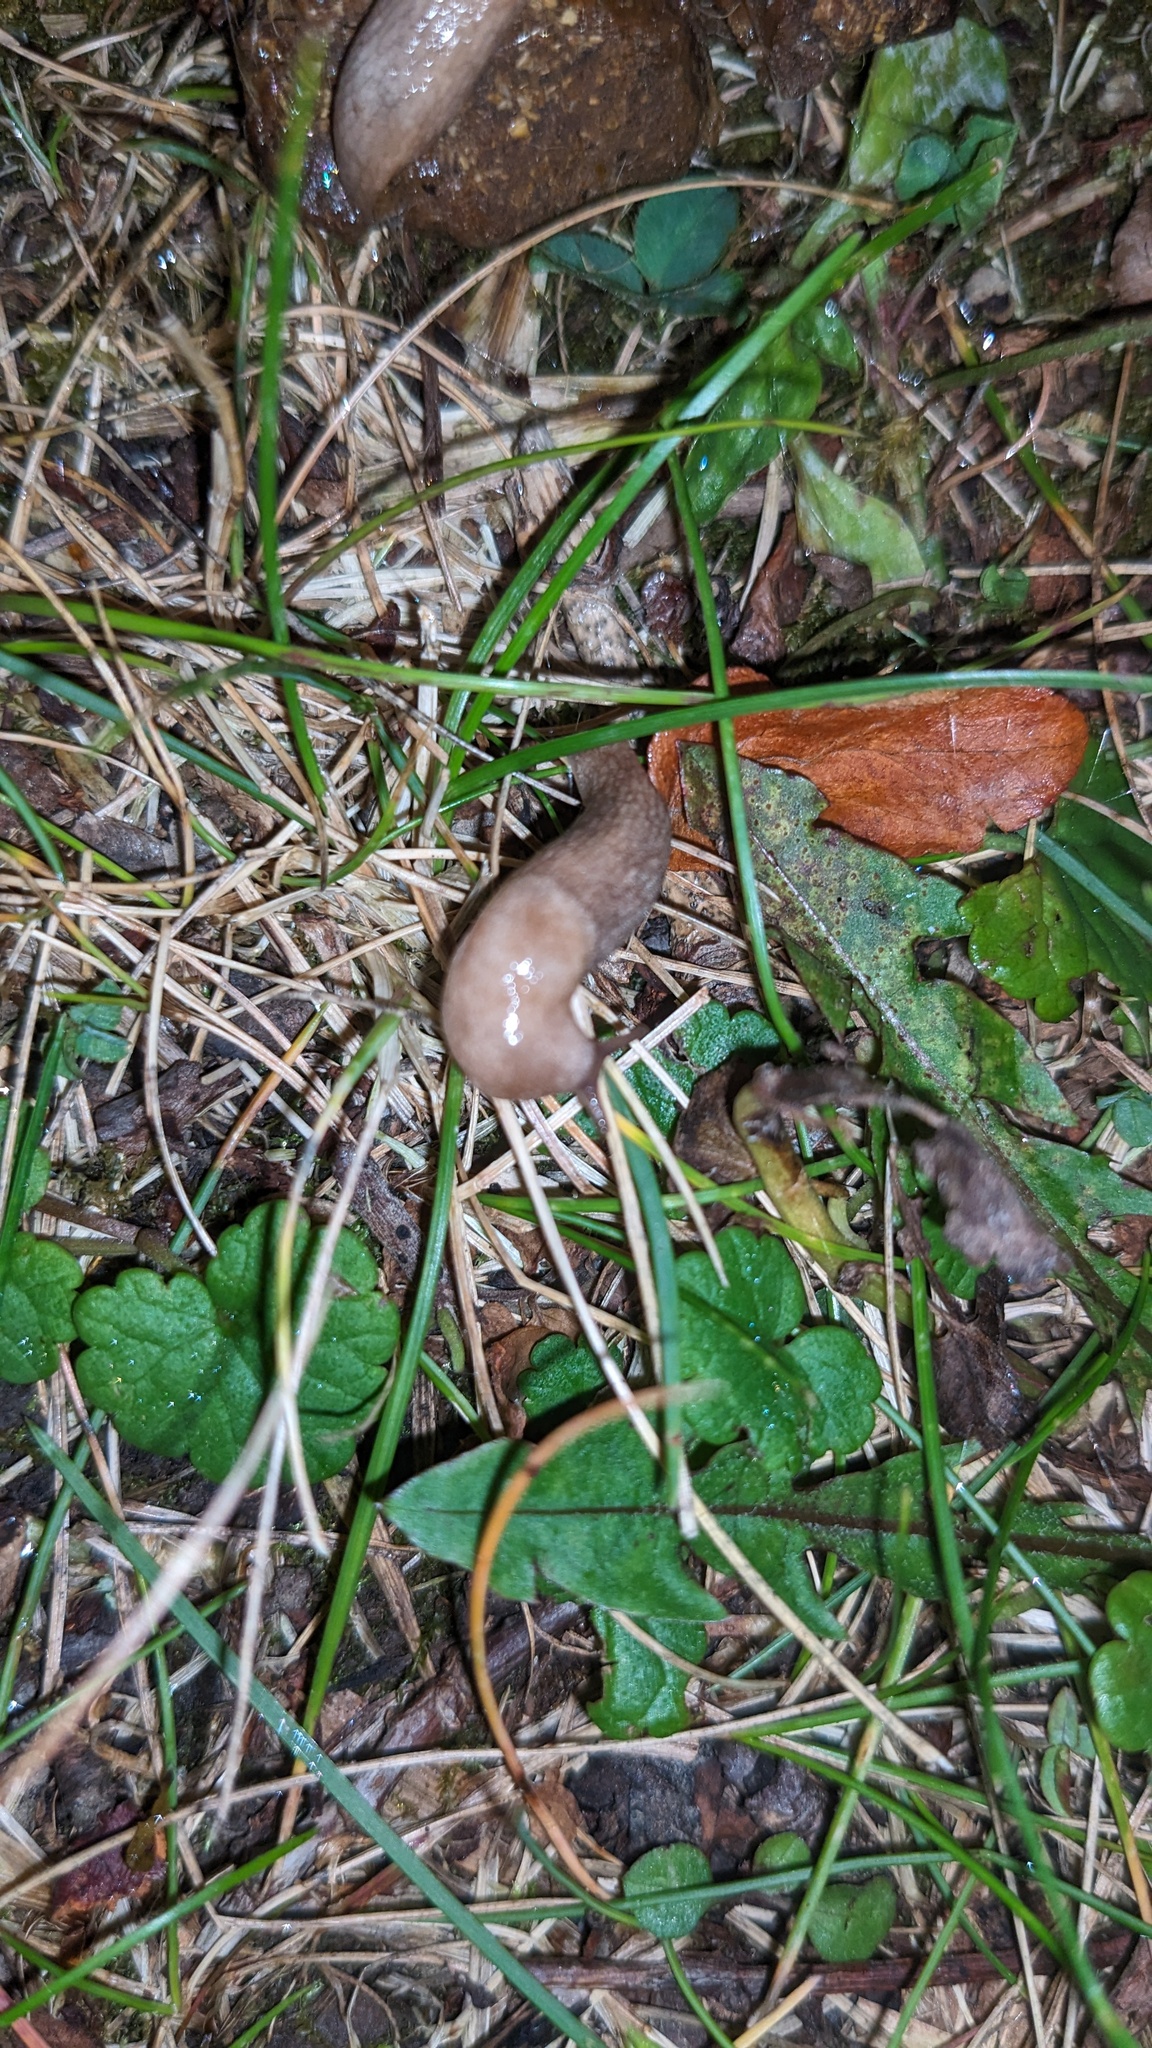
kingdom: Animalia
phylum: Mollusca
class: Gastropoda
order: Stylommatophora
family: Agriolimacidae
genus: Deroceras
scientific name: Deroceras reticulatum
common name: Gray field slug
